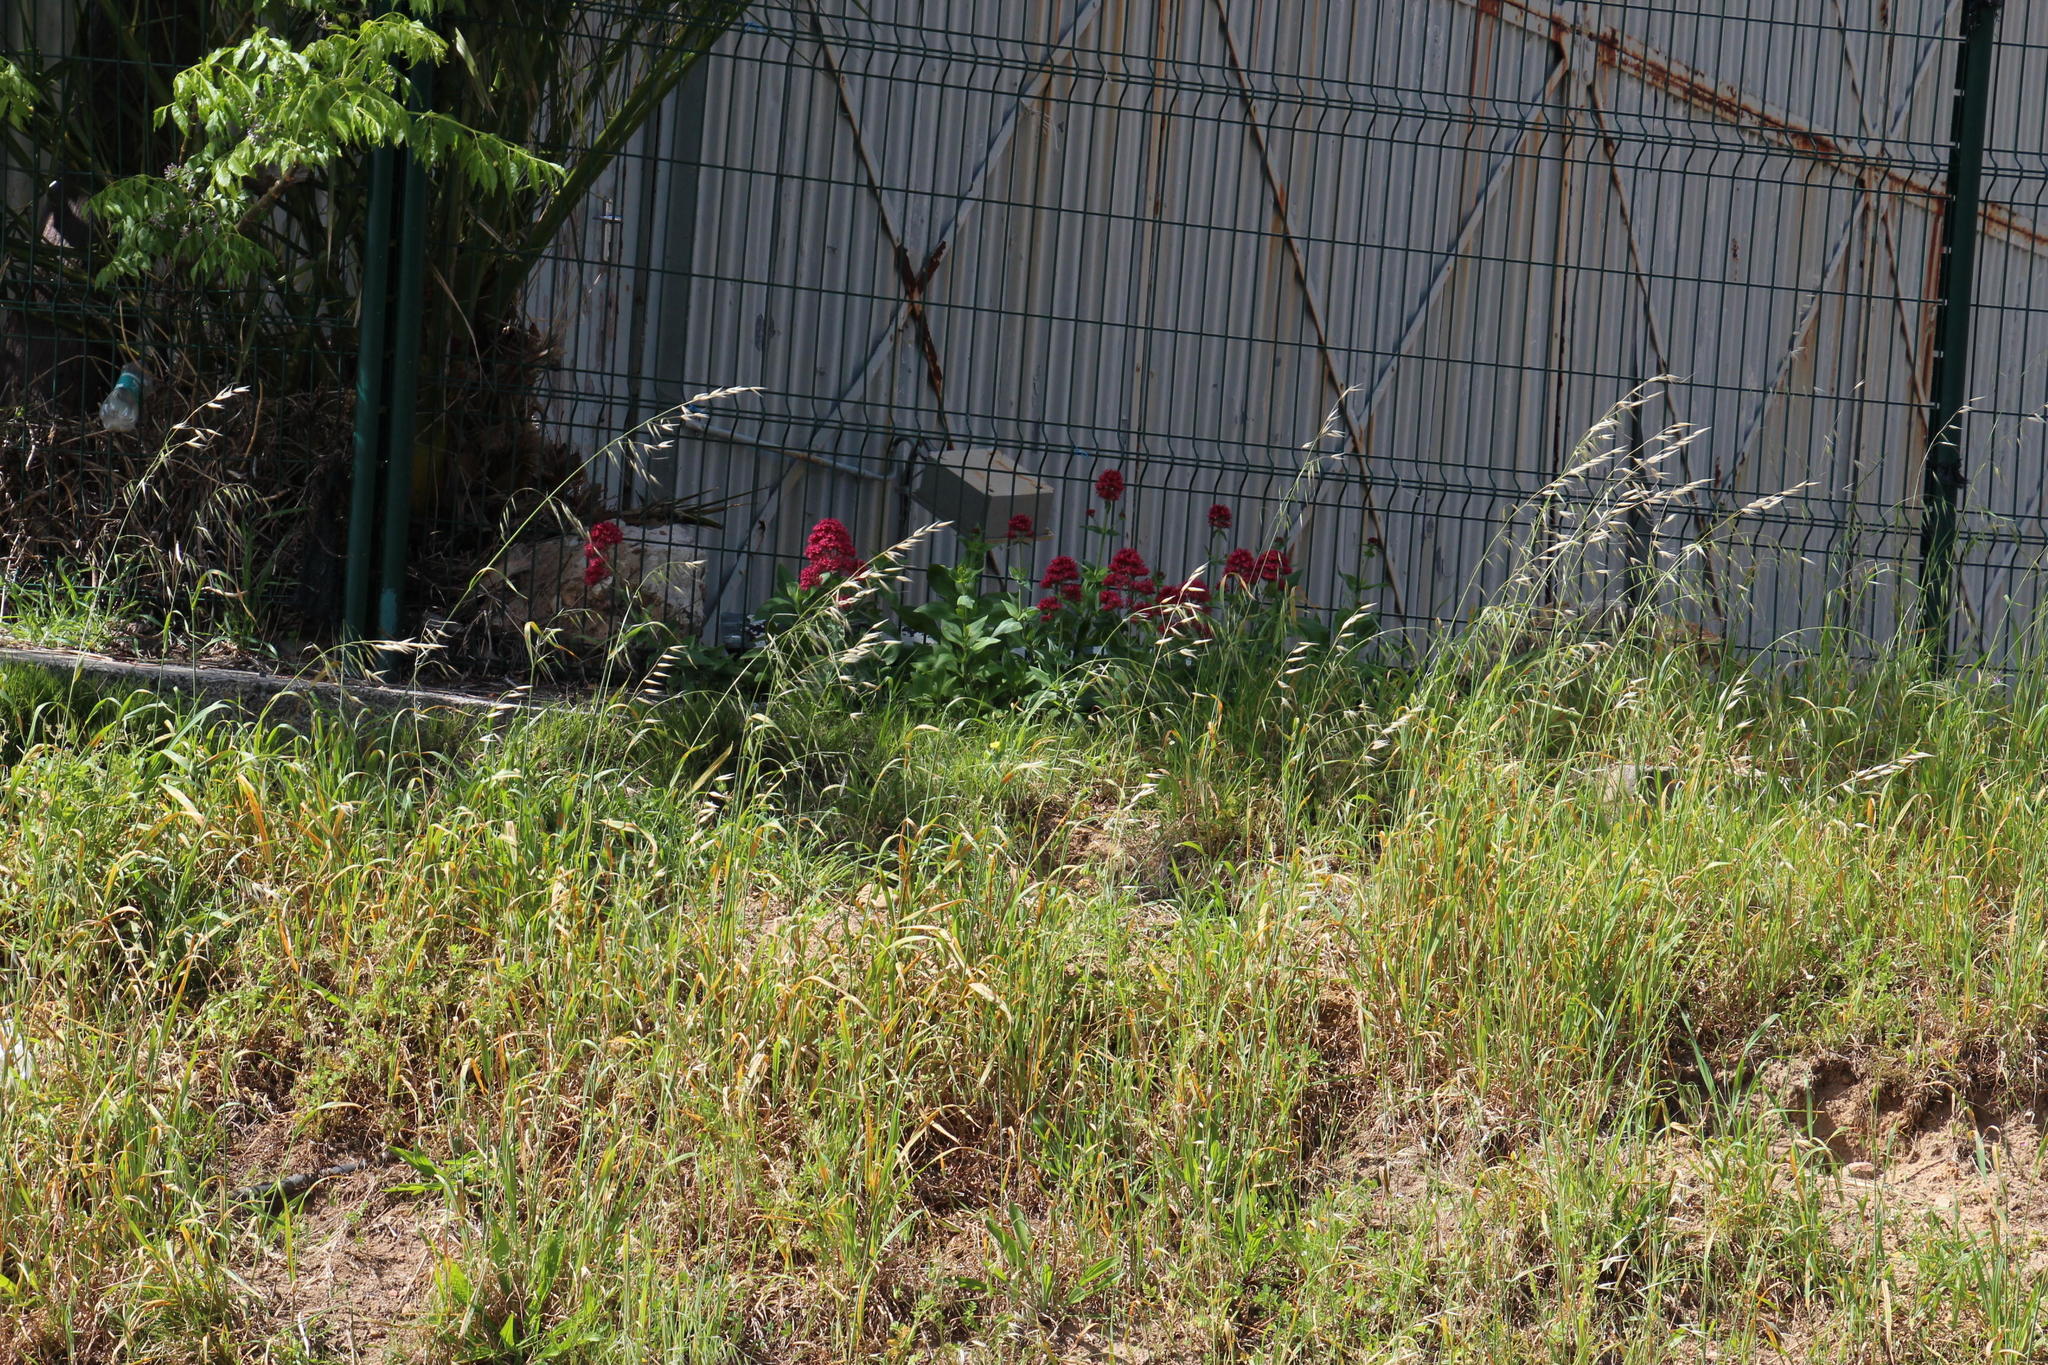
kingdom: Plantae
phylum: Tracheophyta
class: Magnoliopsida
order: Dipsacales
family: Caprifoliaceae
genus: Centranthus
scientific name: Centranthus ruber
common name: Red valerian
